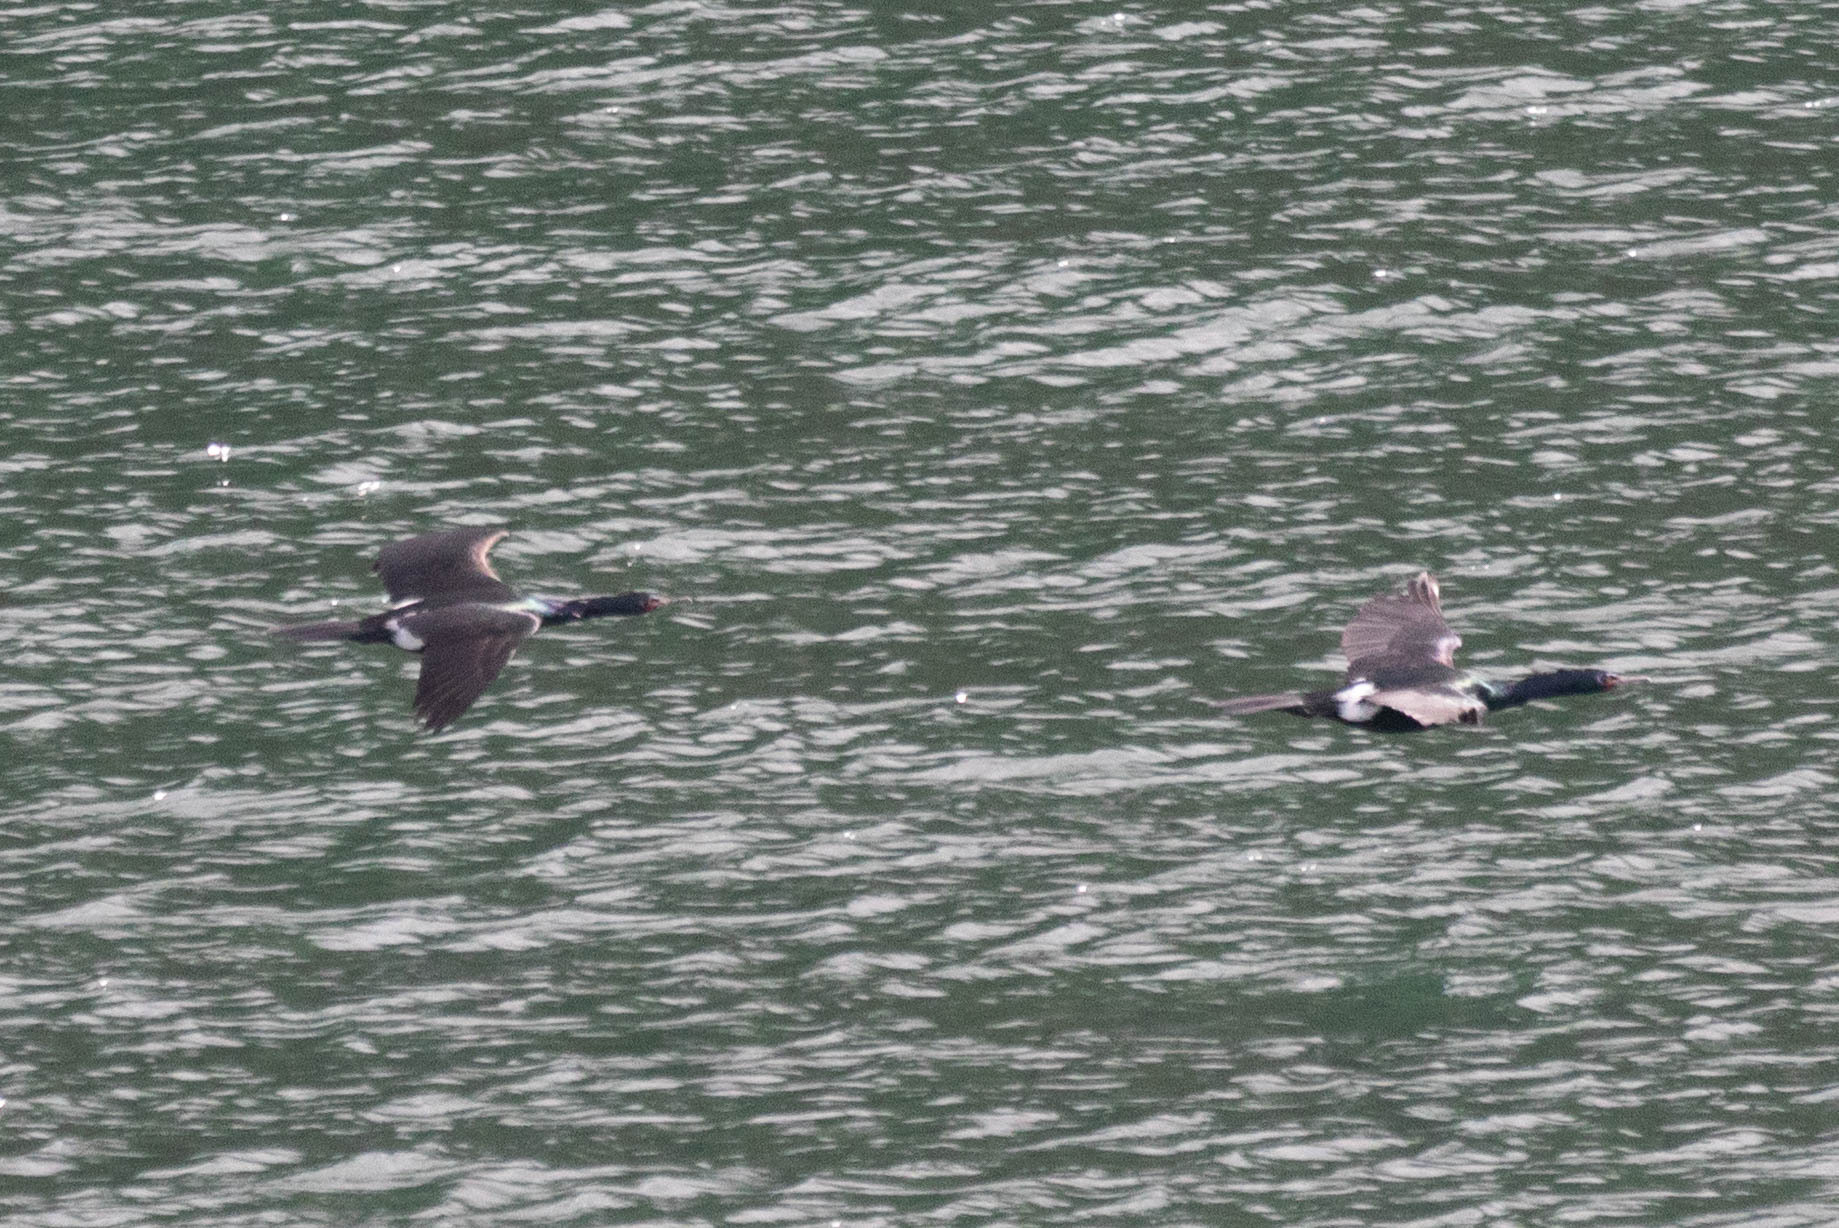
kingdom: Animalia
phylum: Chordata
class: Aves
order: Suliformes
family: Phalacrocoracidae
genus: Phalacrocorax
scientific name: Phalacrocorax pelagicus
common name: Pelagic cormorant
